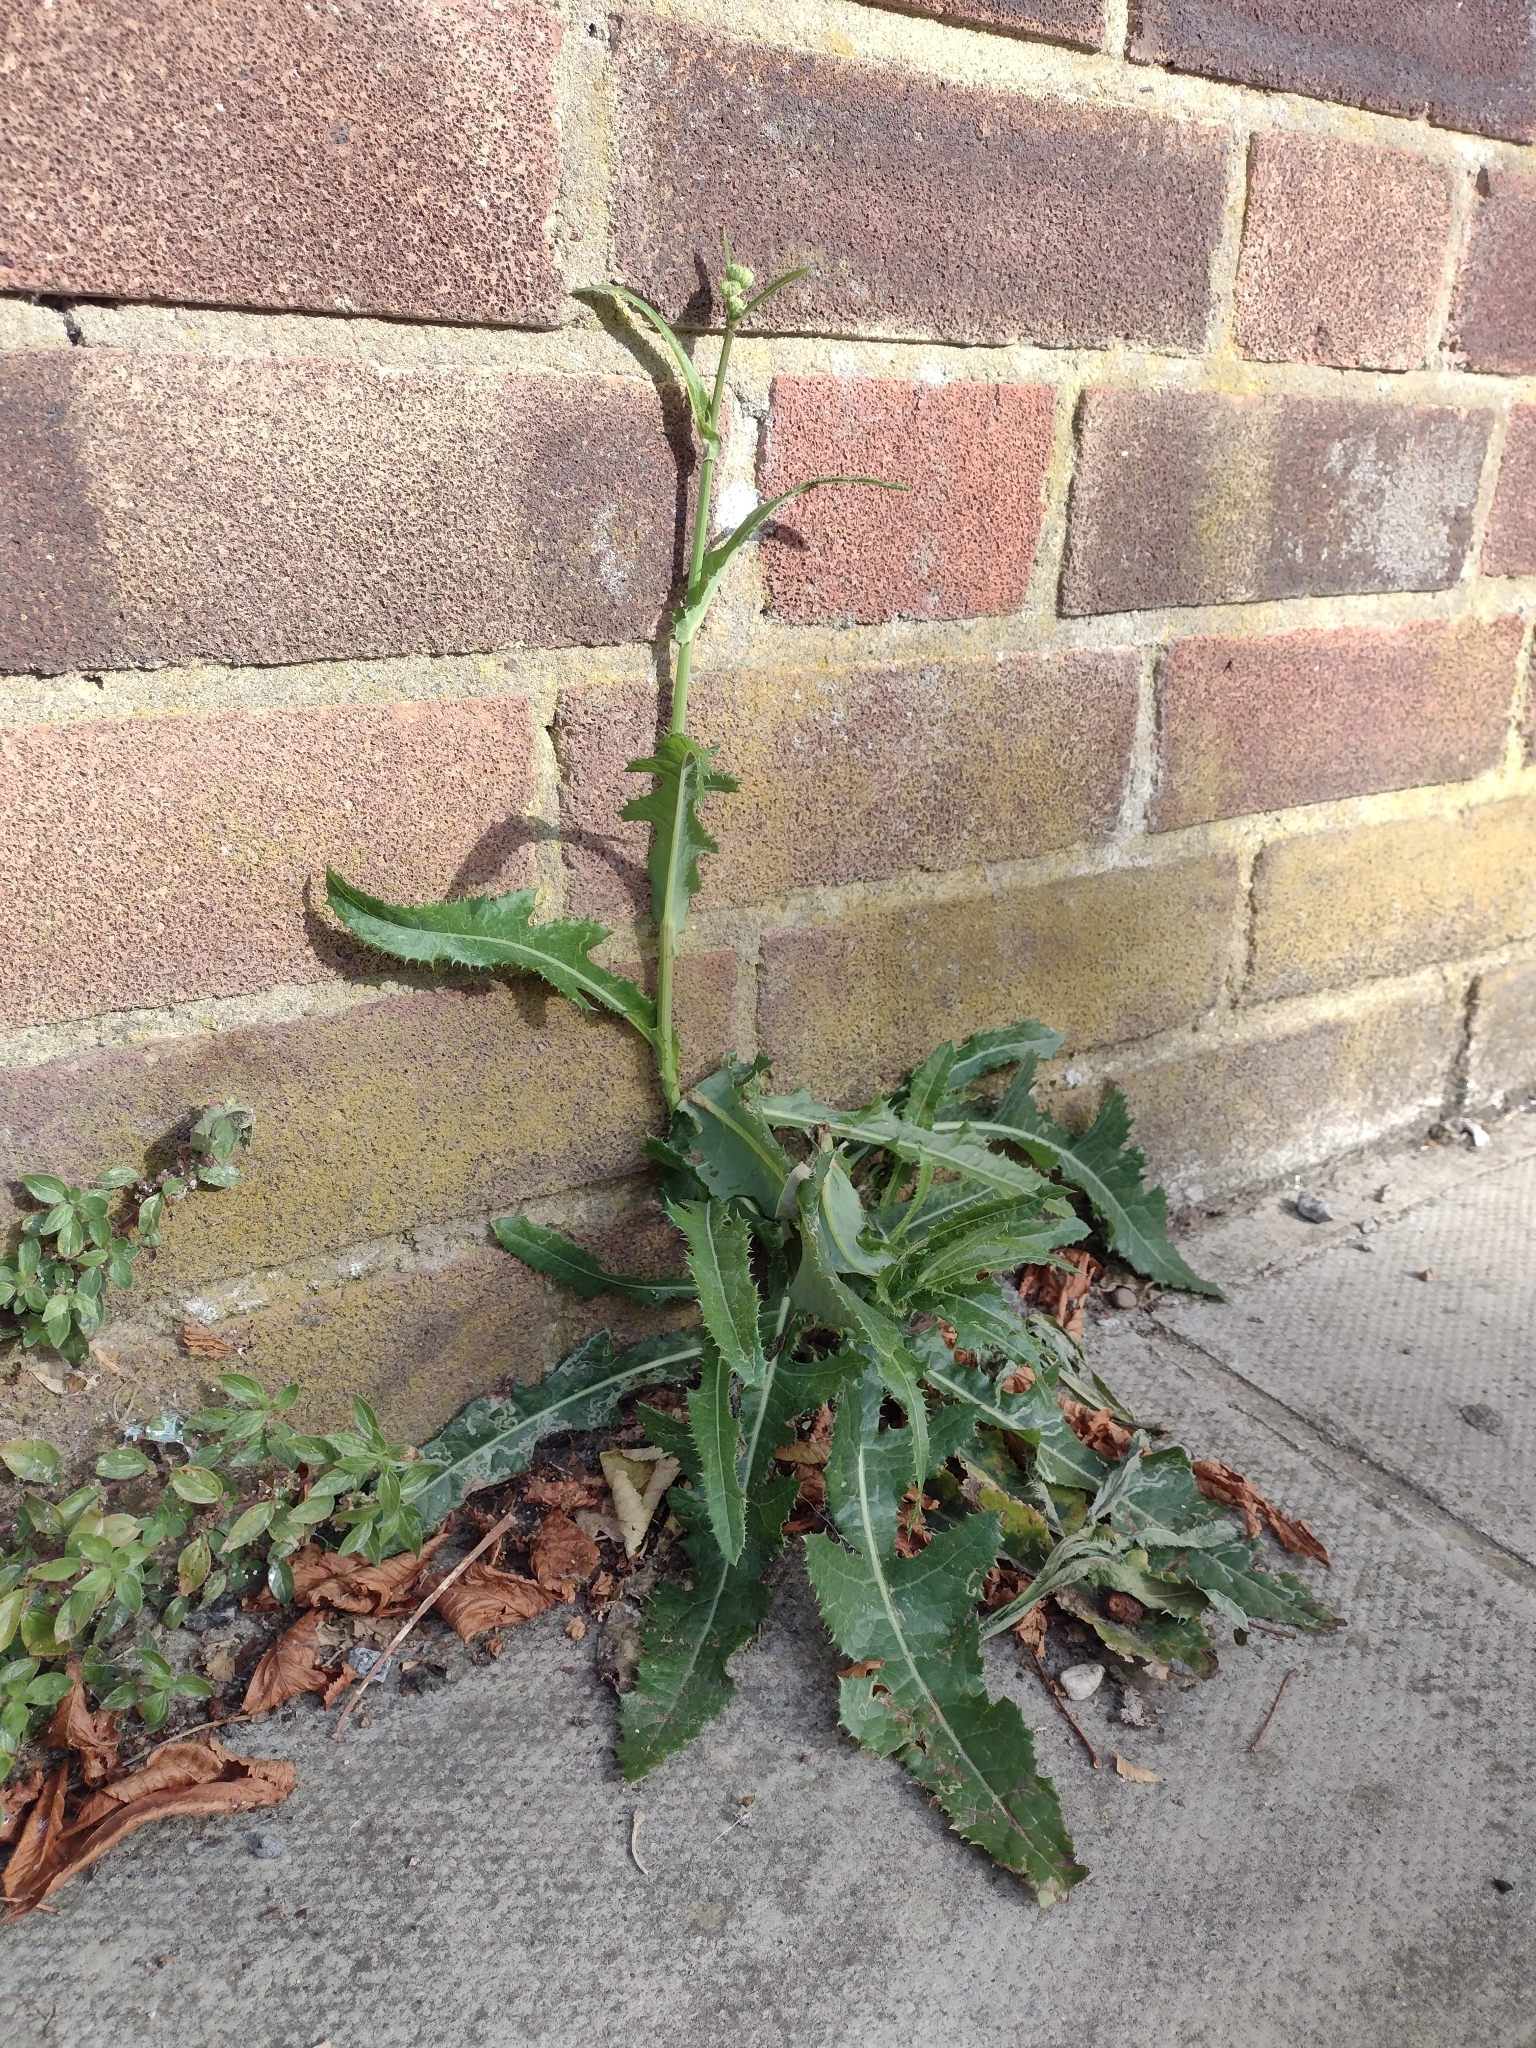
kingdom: Plantae
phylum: Tracheophyta
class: Magnoliopsida
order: Asterales
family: Asteraceae
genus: Sonchus
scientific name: Sonchus arvensis
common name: Perennial sow-thistle
